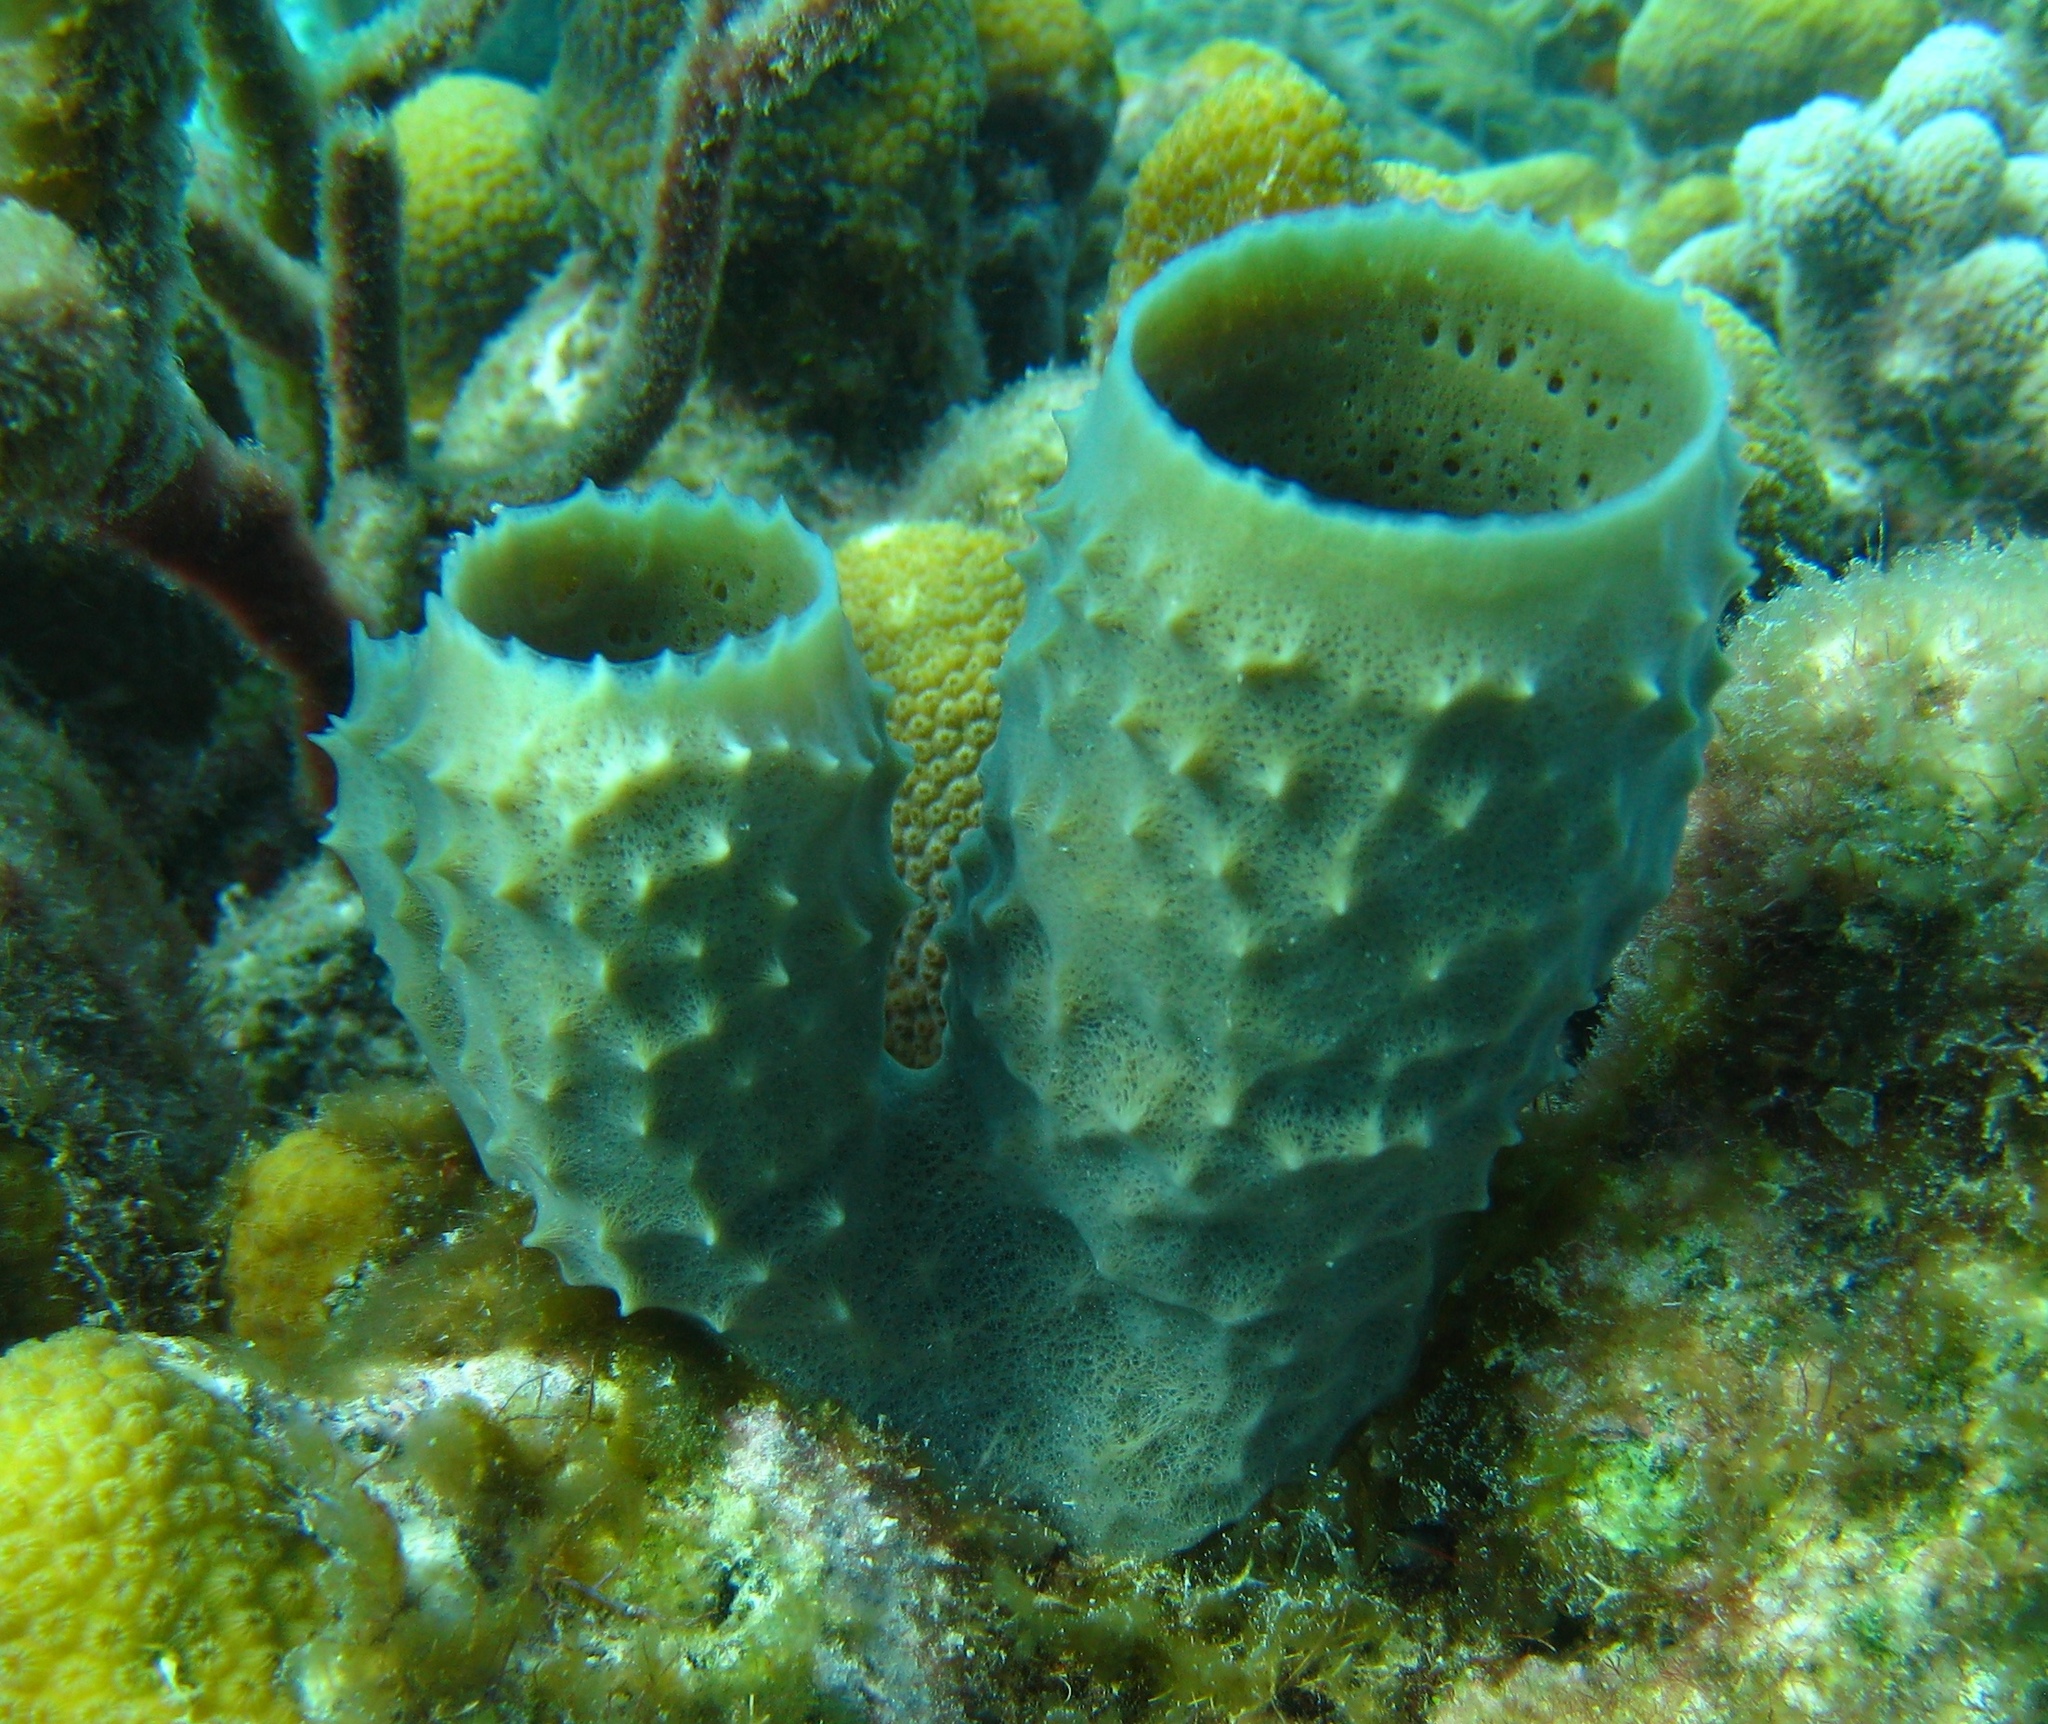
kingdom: Animalia
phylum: Porifera
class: Demospongiae
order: Haplosclerida
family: Callyspongiidae
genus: Callyspongia
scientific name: Callyspongia aculeata
